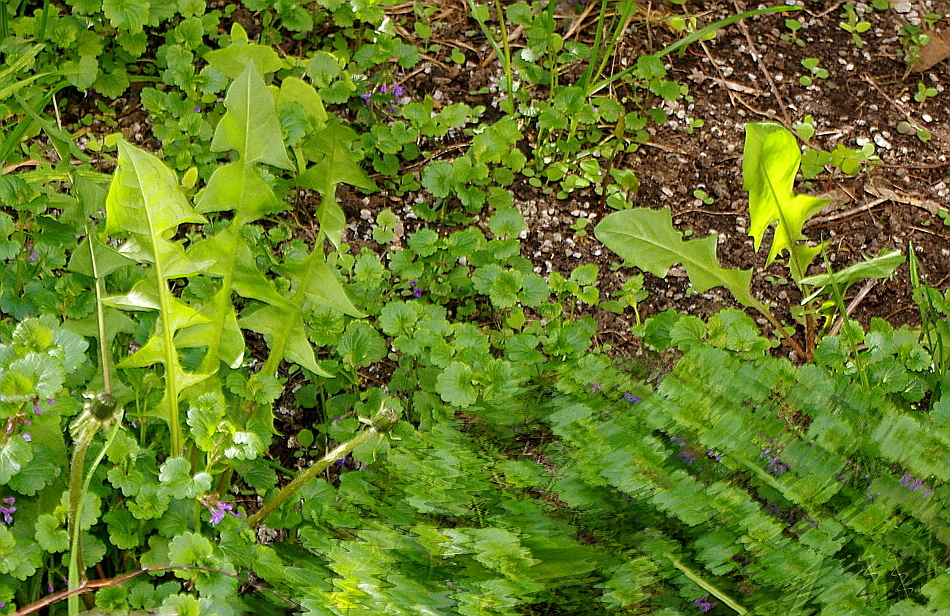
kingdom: Plantae
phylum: Tracheophyta
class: Magnoliopsida
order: Asterales
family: Asteraceae
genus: Taraxacum
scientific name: Taraxacum officinale
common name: Common dandelion
